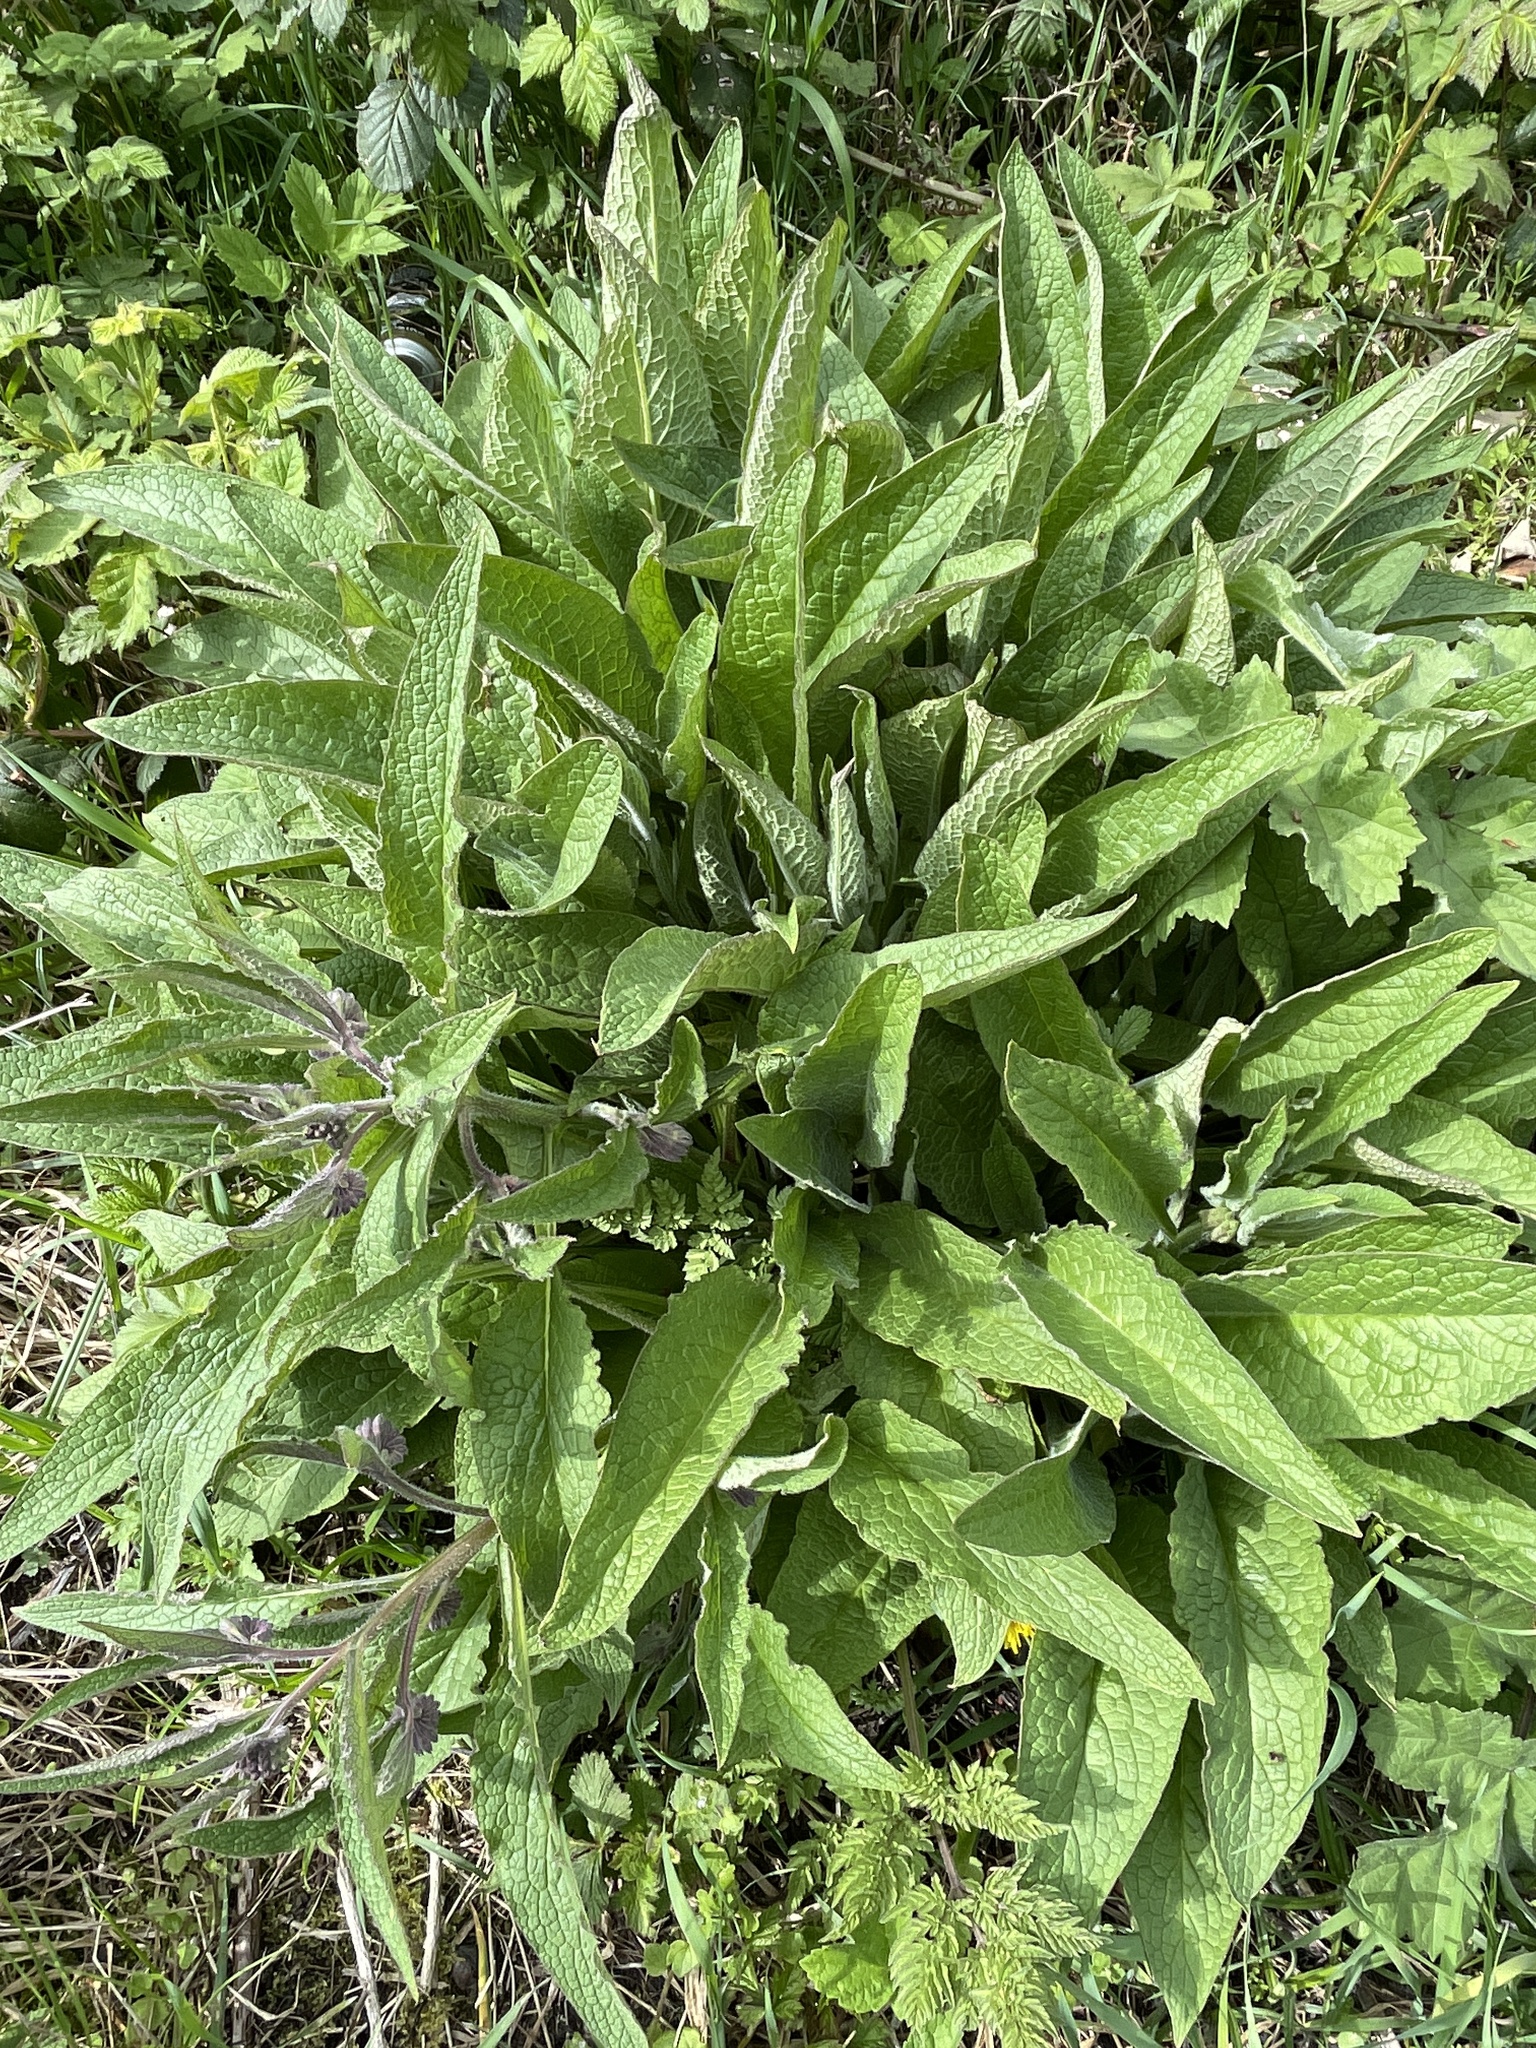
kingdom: Plantae
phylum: Tracheophyta
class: Magnoliopsida
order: Boraginales
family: Boraginaceae
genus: Symphytum
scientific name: Symphytum uplandicum
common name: Russian comfrey
